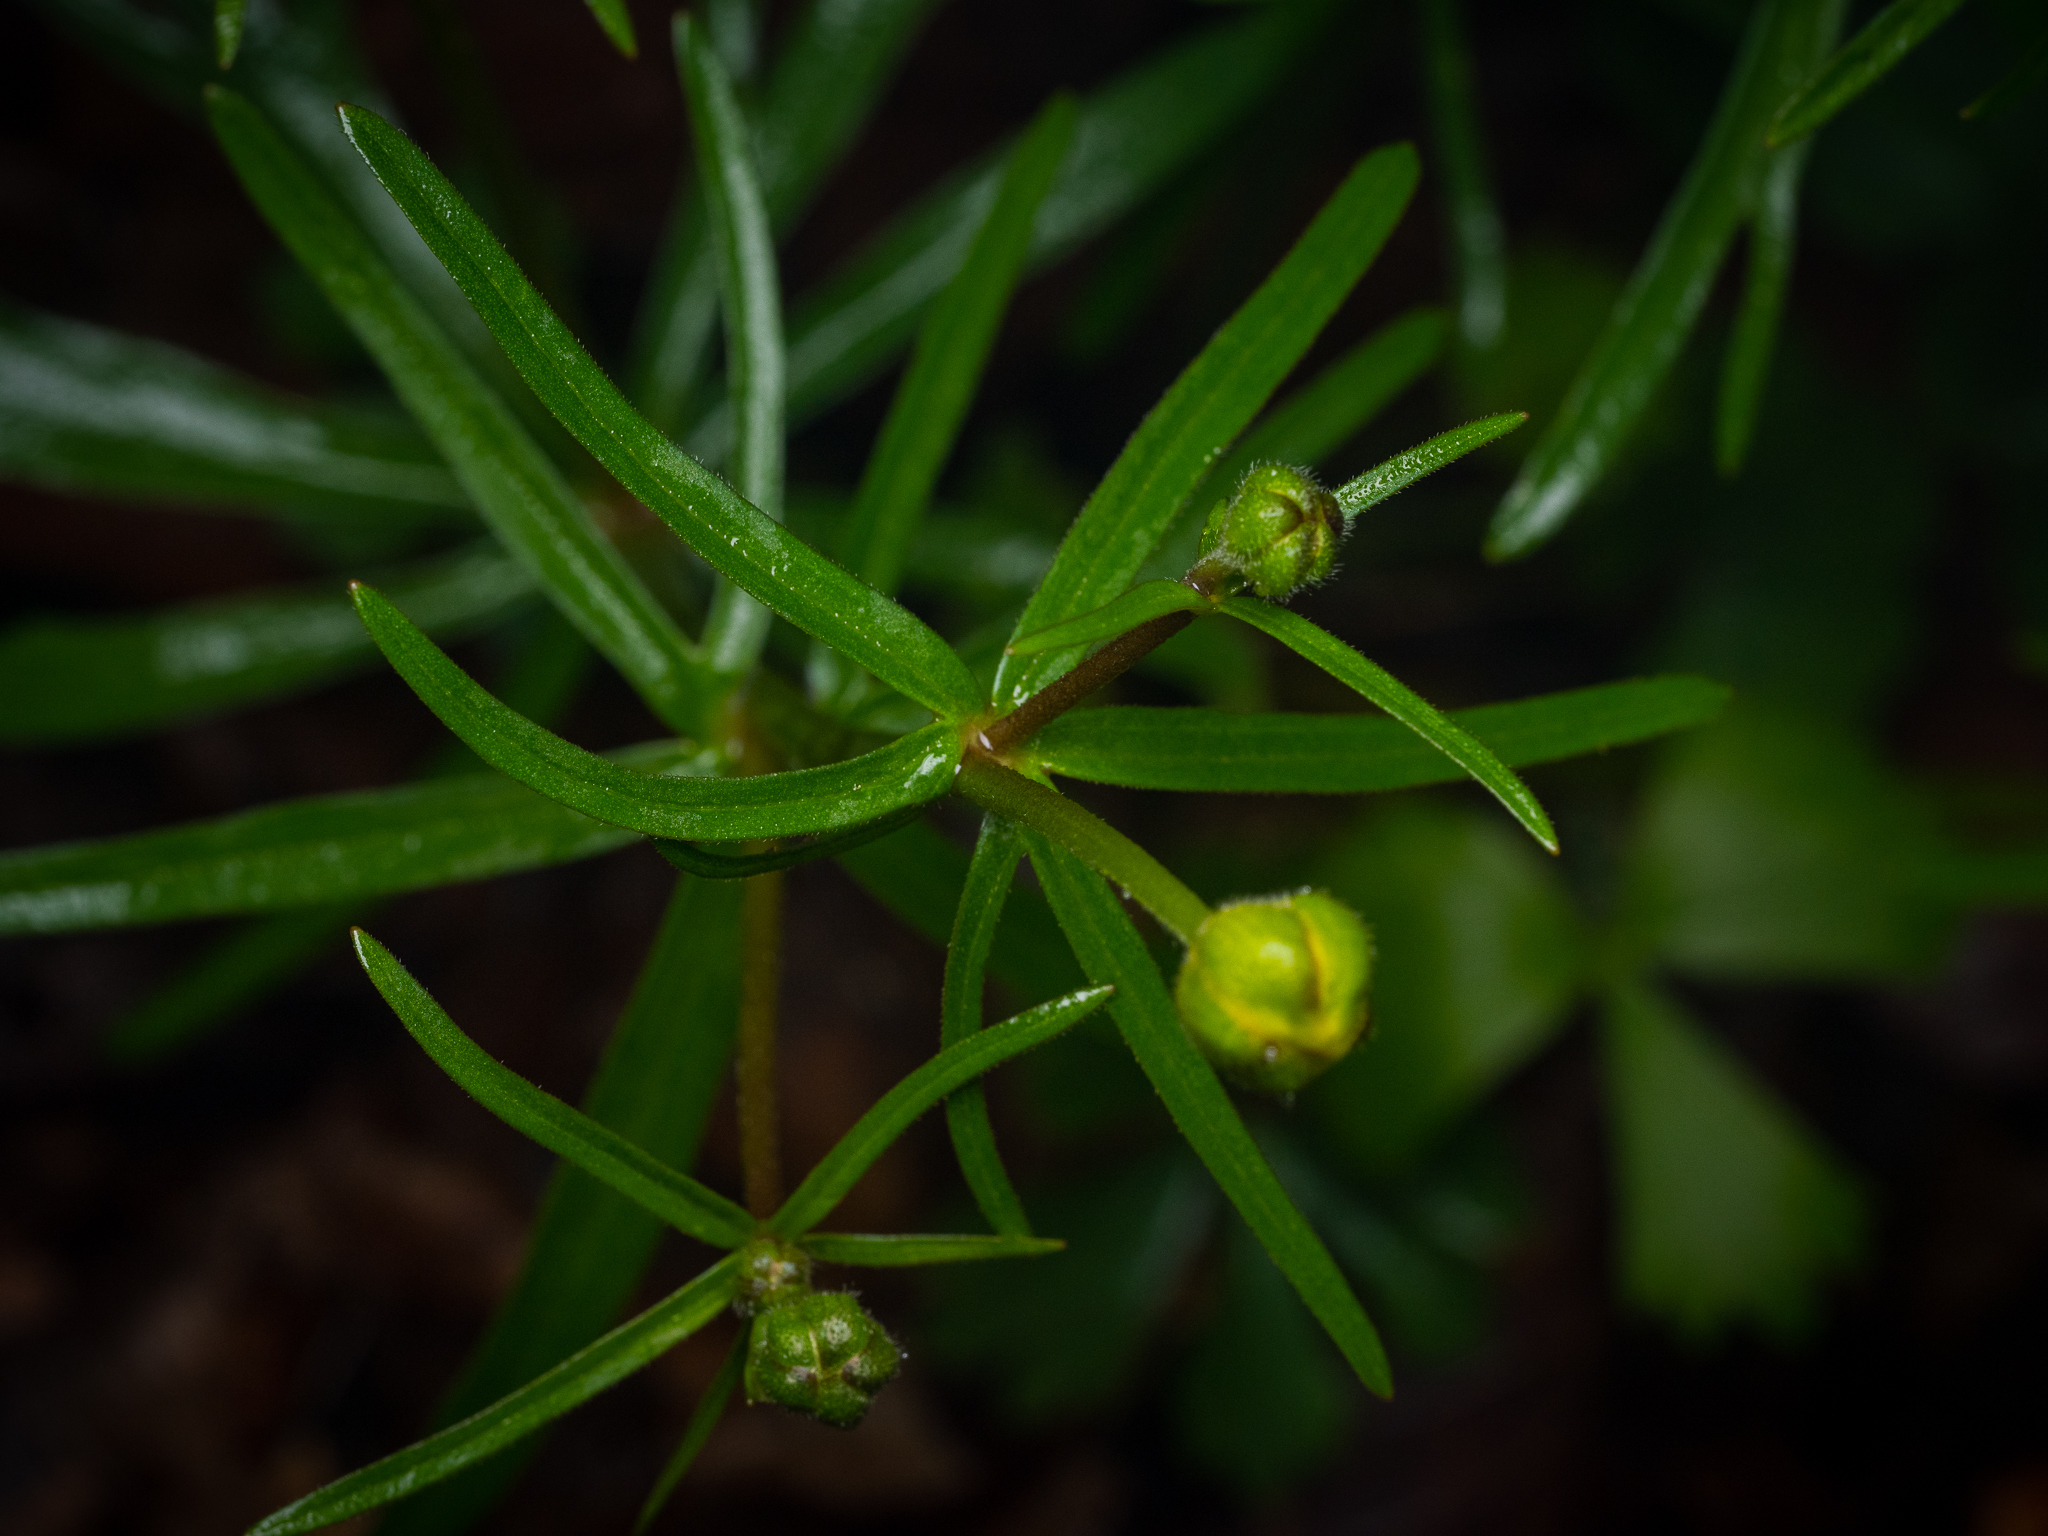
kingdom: Plantae
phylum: Tracheophyta
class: Magnoliopsida
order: Ranunculales
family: Ranunculaceae
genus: Ranunculus
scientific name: Ranunculus auricomus
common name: Goldilocks buttercup
